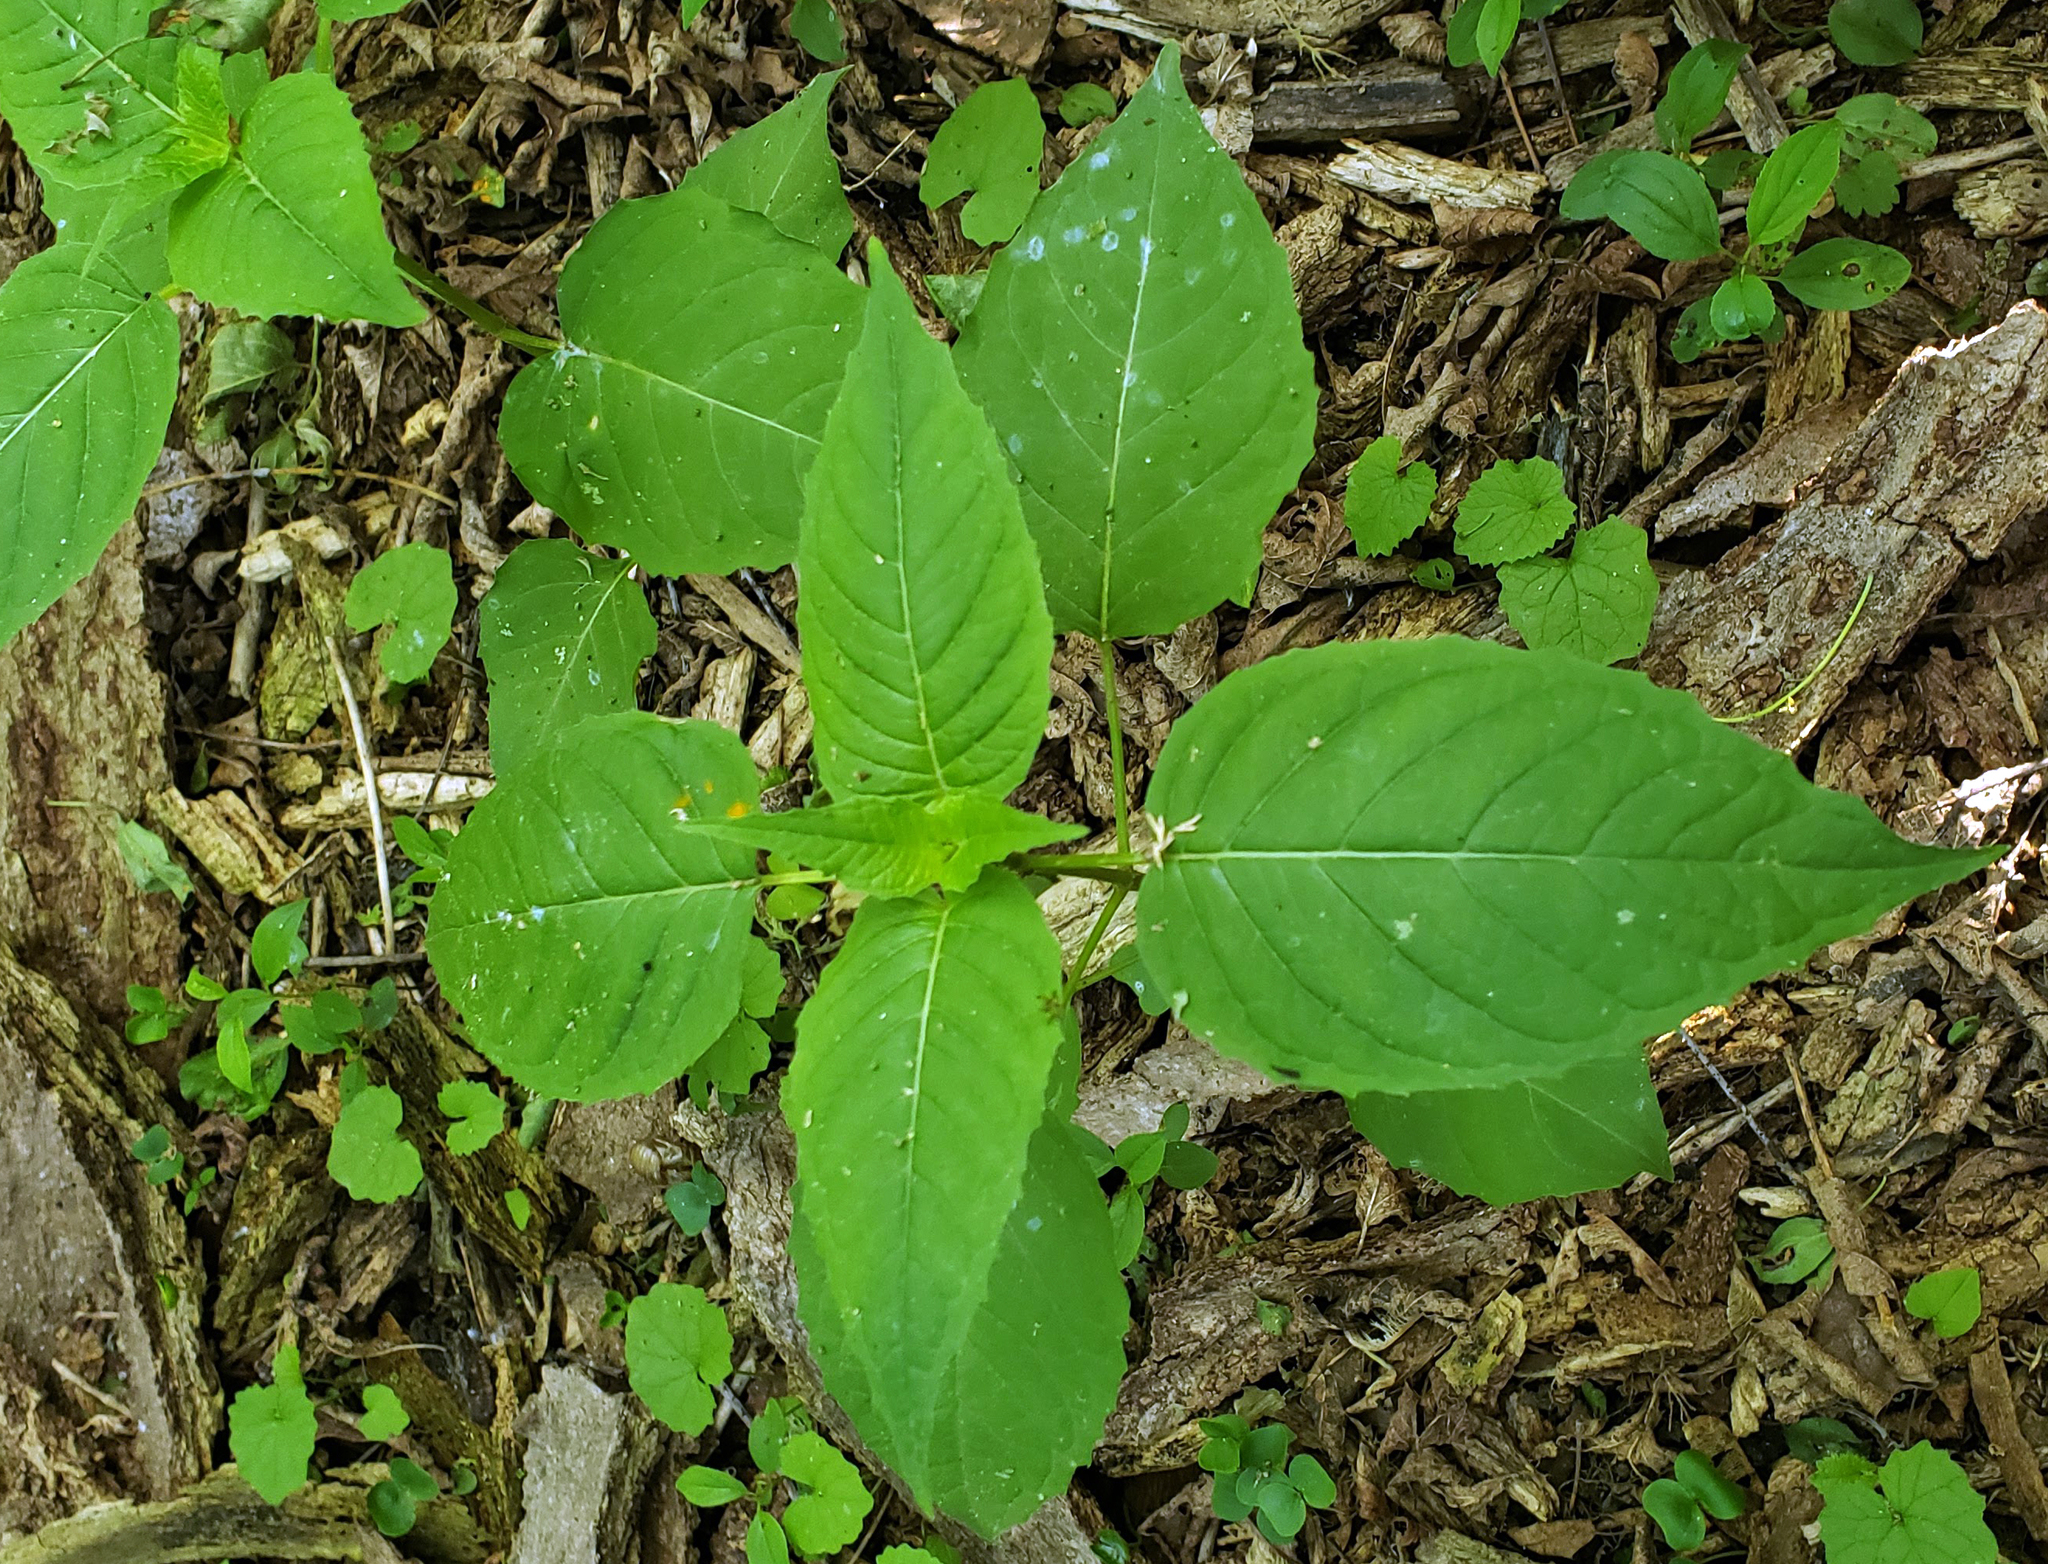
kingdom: Plantae
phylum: Tracheophyta
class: Magnoliopsida
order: Myrtales
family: Onagraceae
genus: Circaea
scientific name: Circaea canadensis
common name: Broad-leaved enchanter's nightshade
